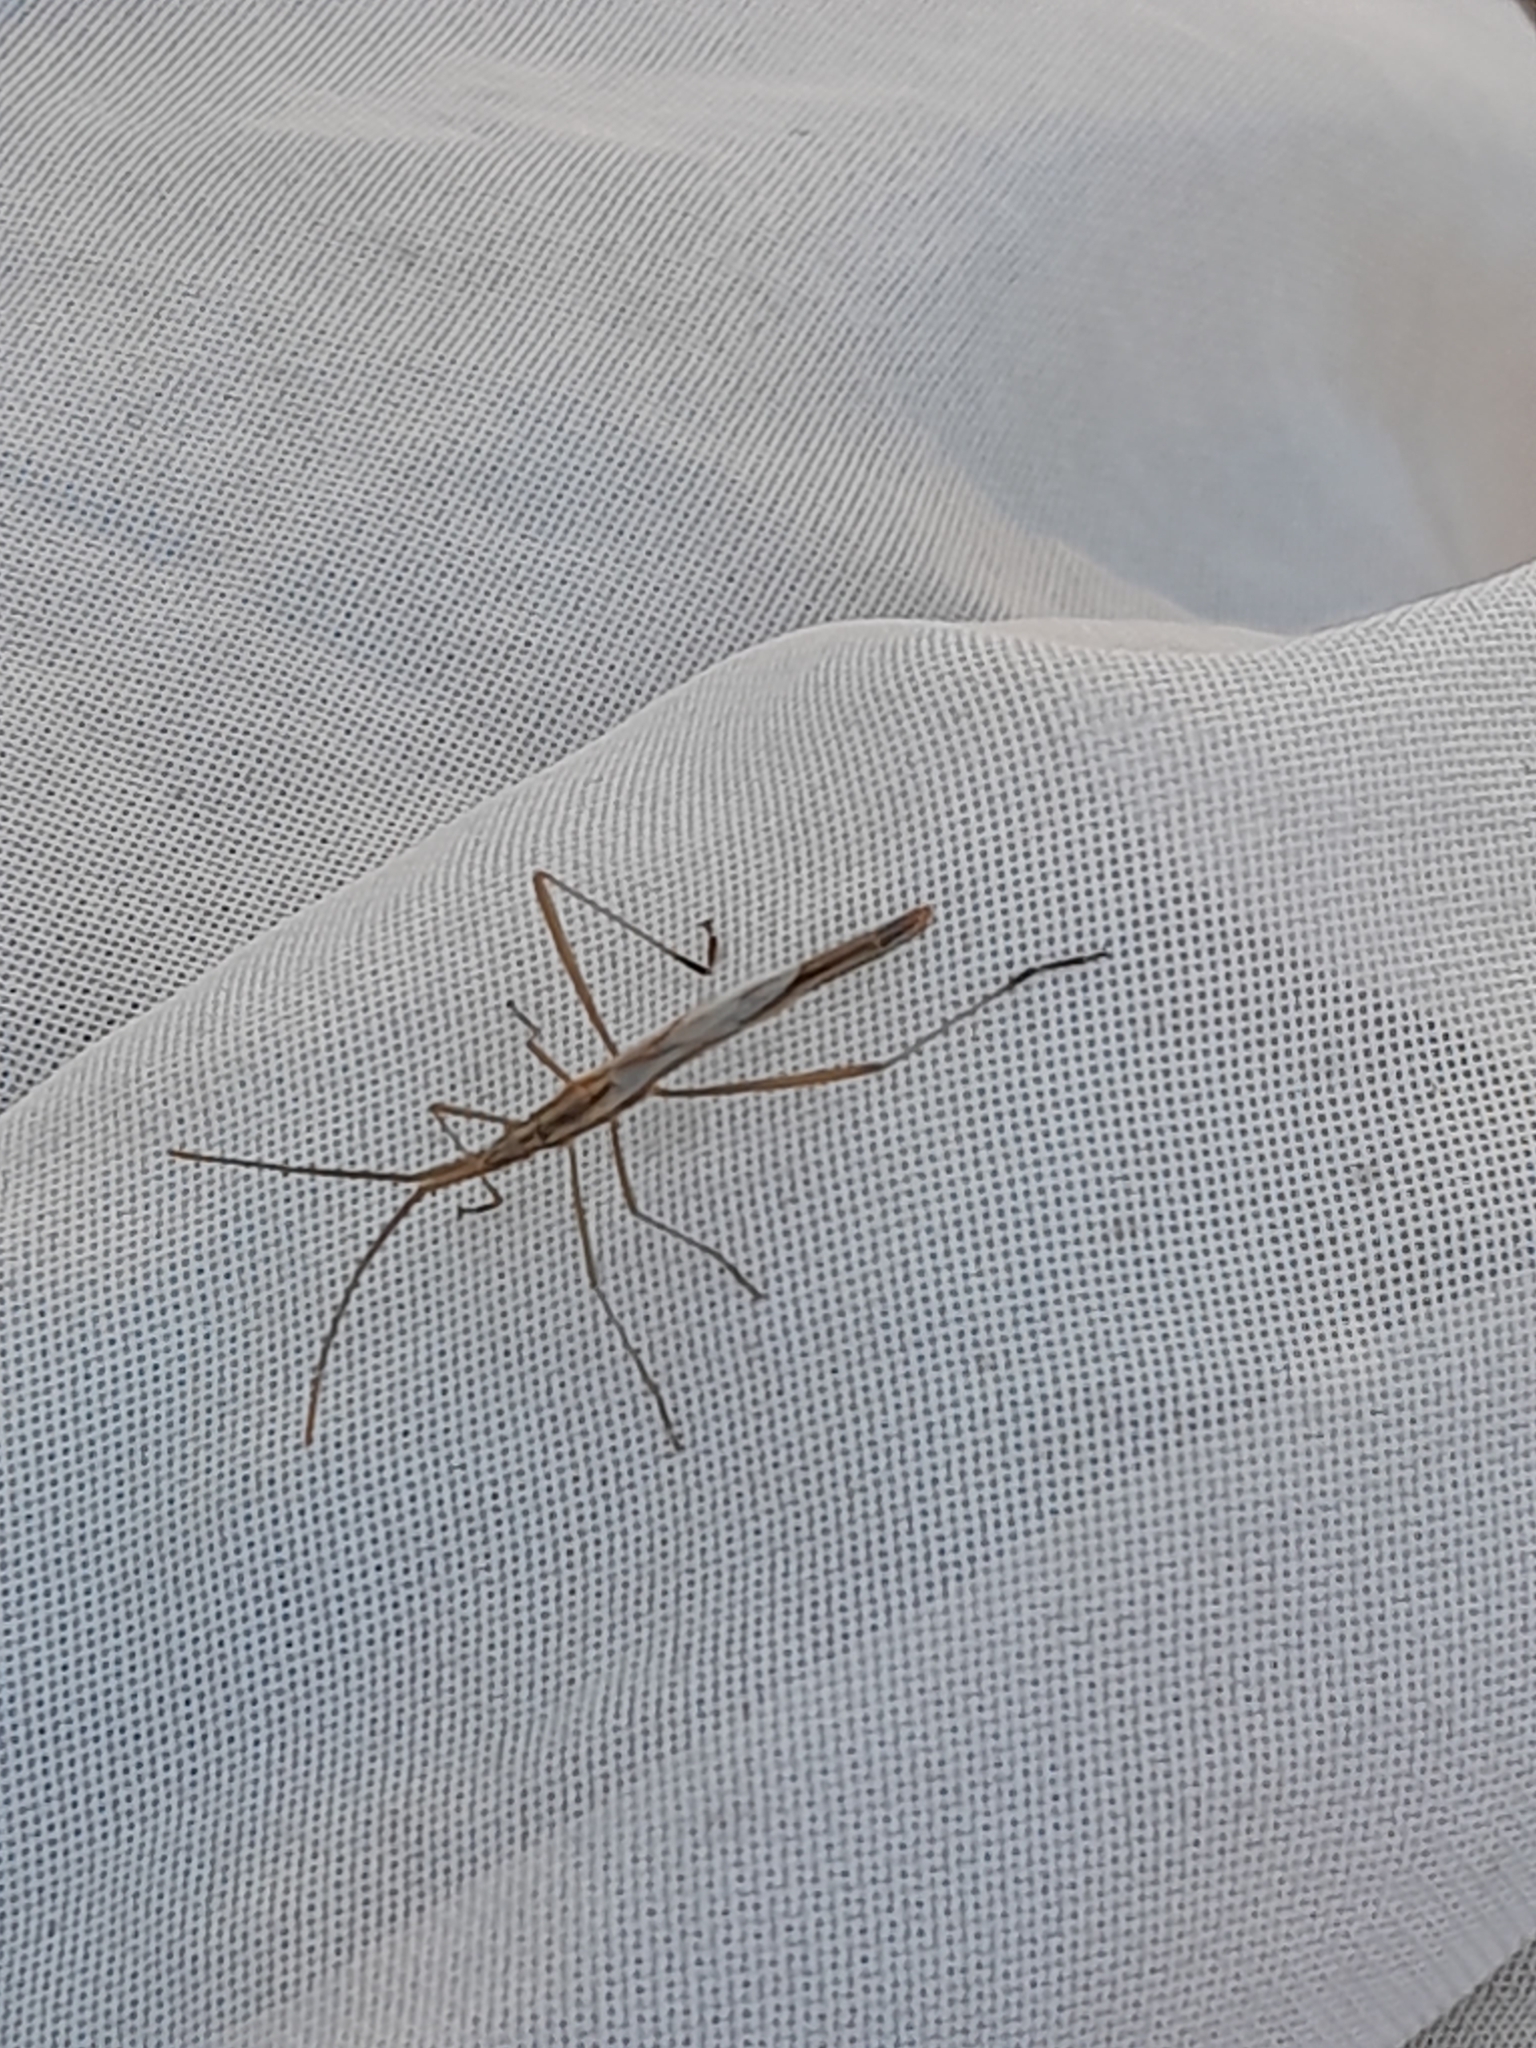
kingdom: Animalia
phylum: Arthropoda
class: Insecta
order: Hemiptera
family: Rhopalidae
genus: Chorosoma
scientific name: Chorosoma schillingii
